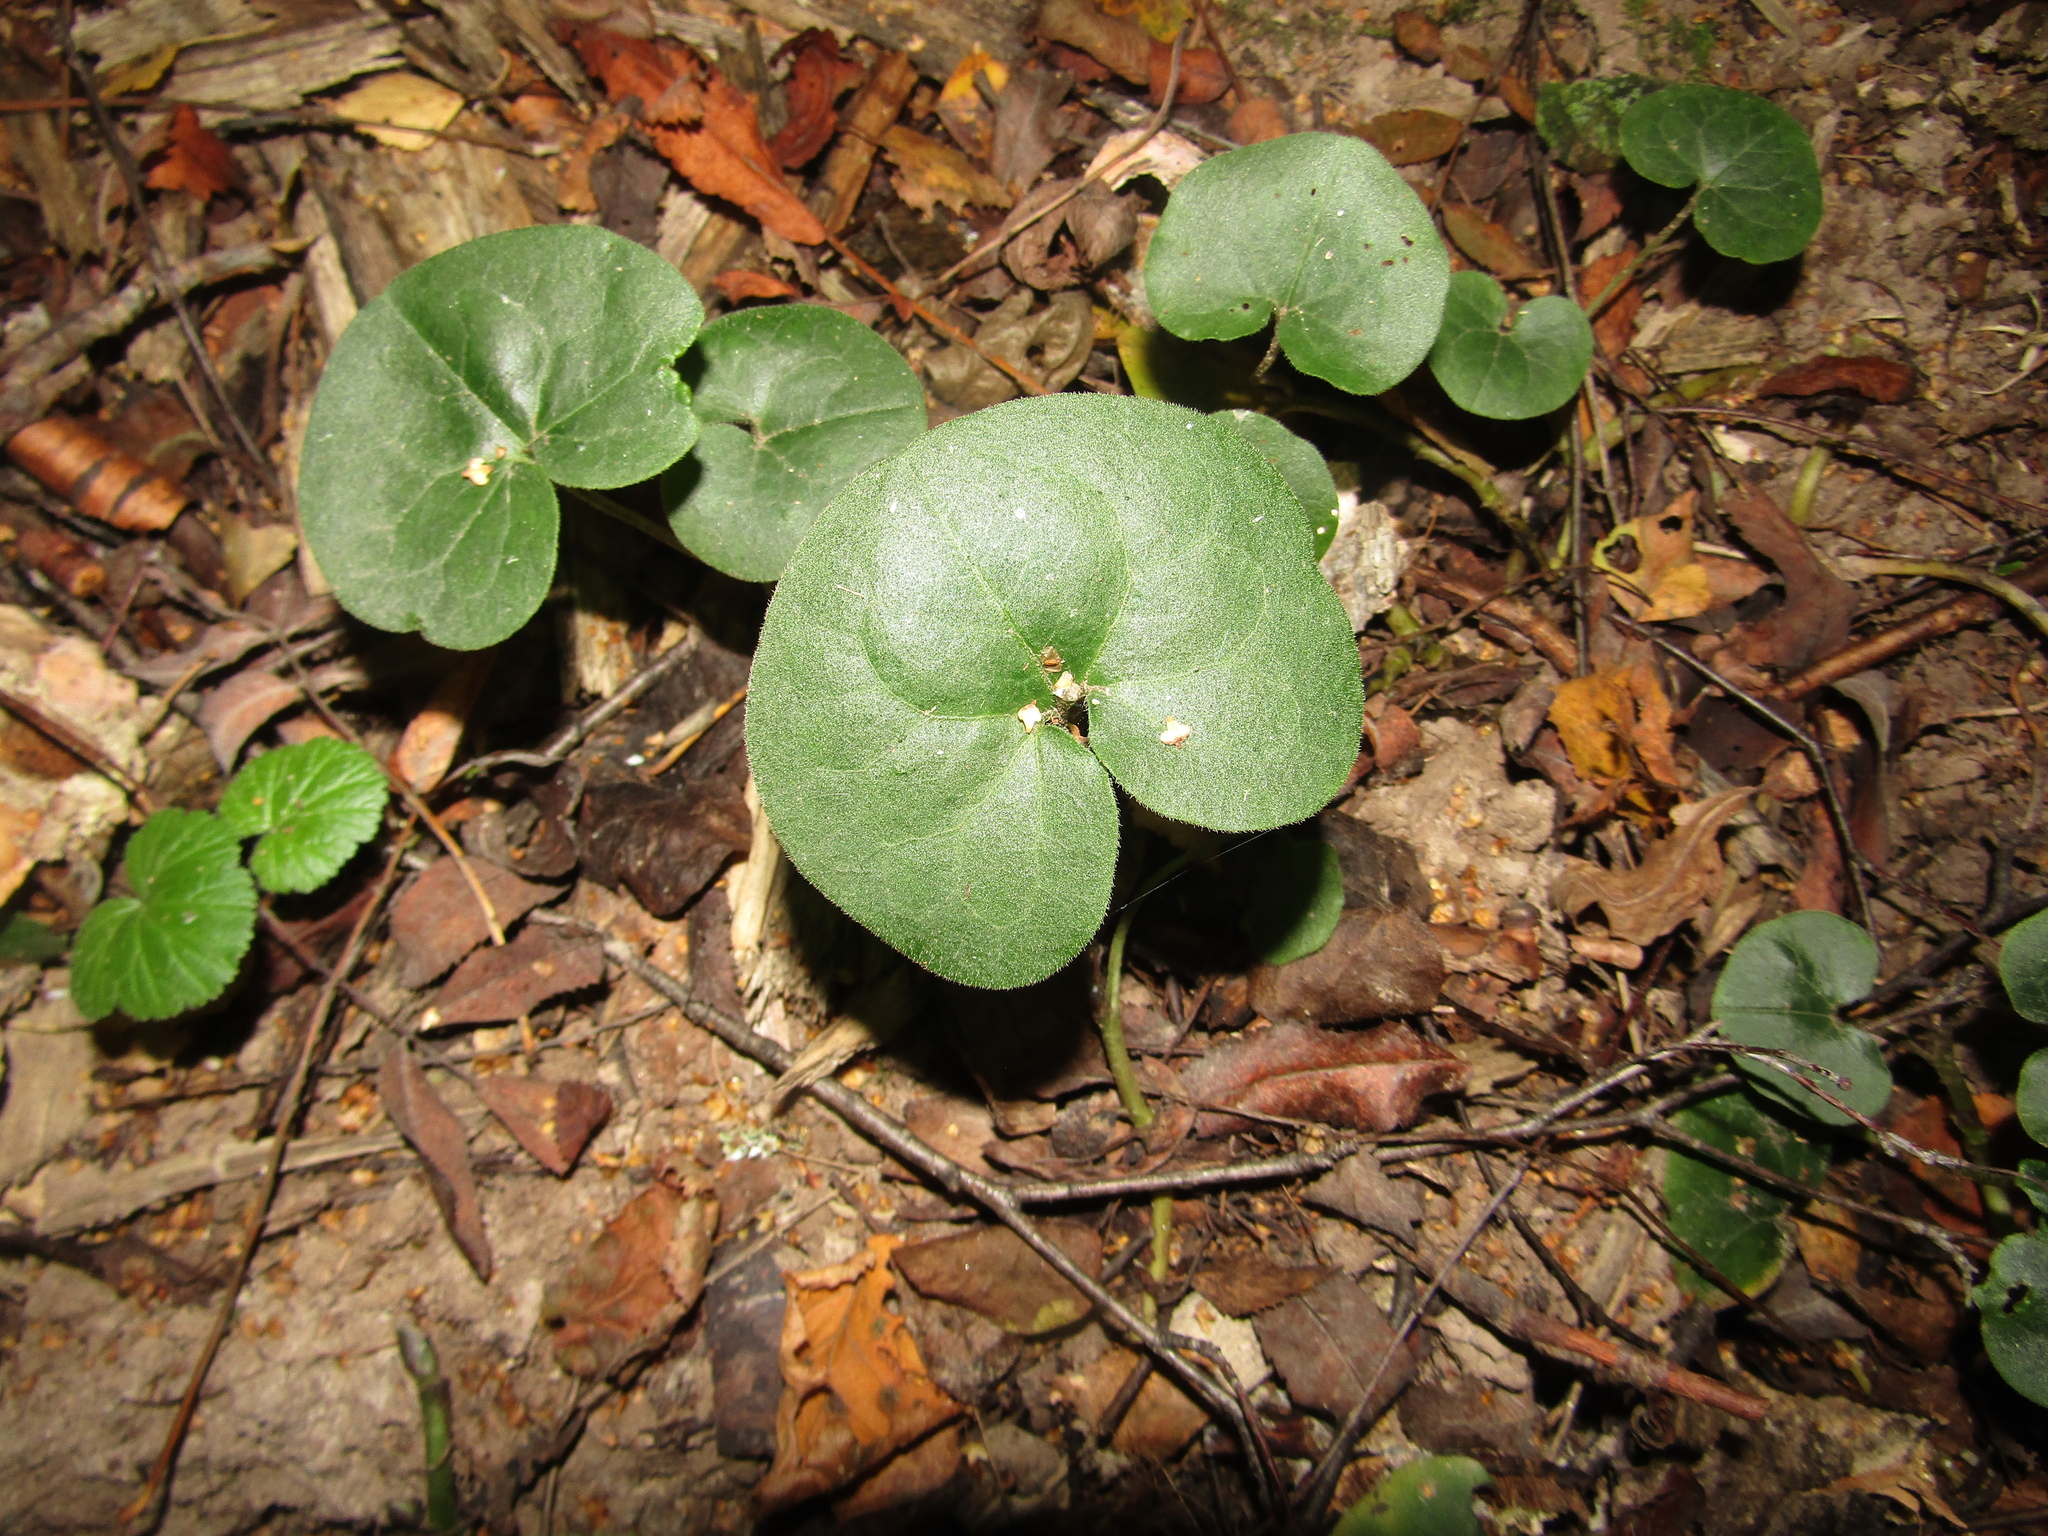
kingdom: Plantae
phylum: Tracheophyta
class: Magnoliopsida
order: Piperales
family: Aristolochiaceae
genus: Asarum
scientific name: Asarum europaeum
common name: Asarabacca
